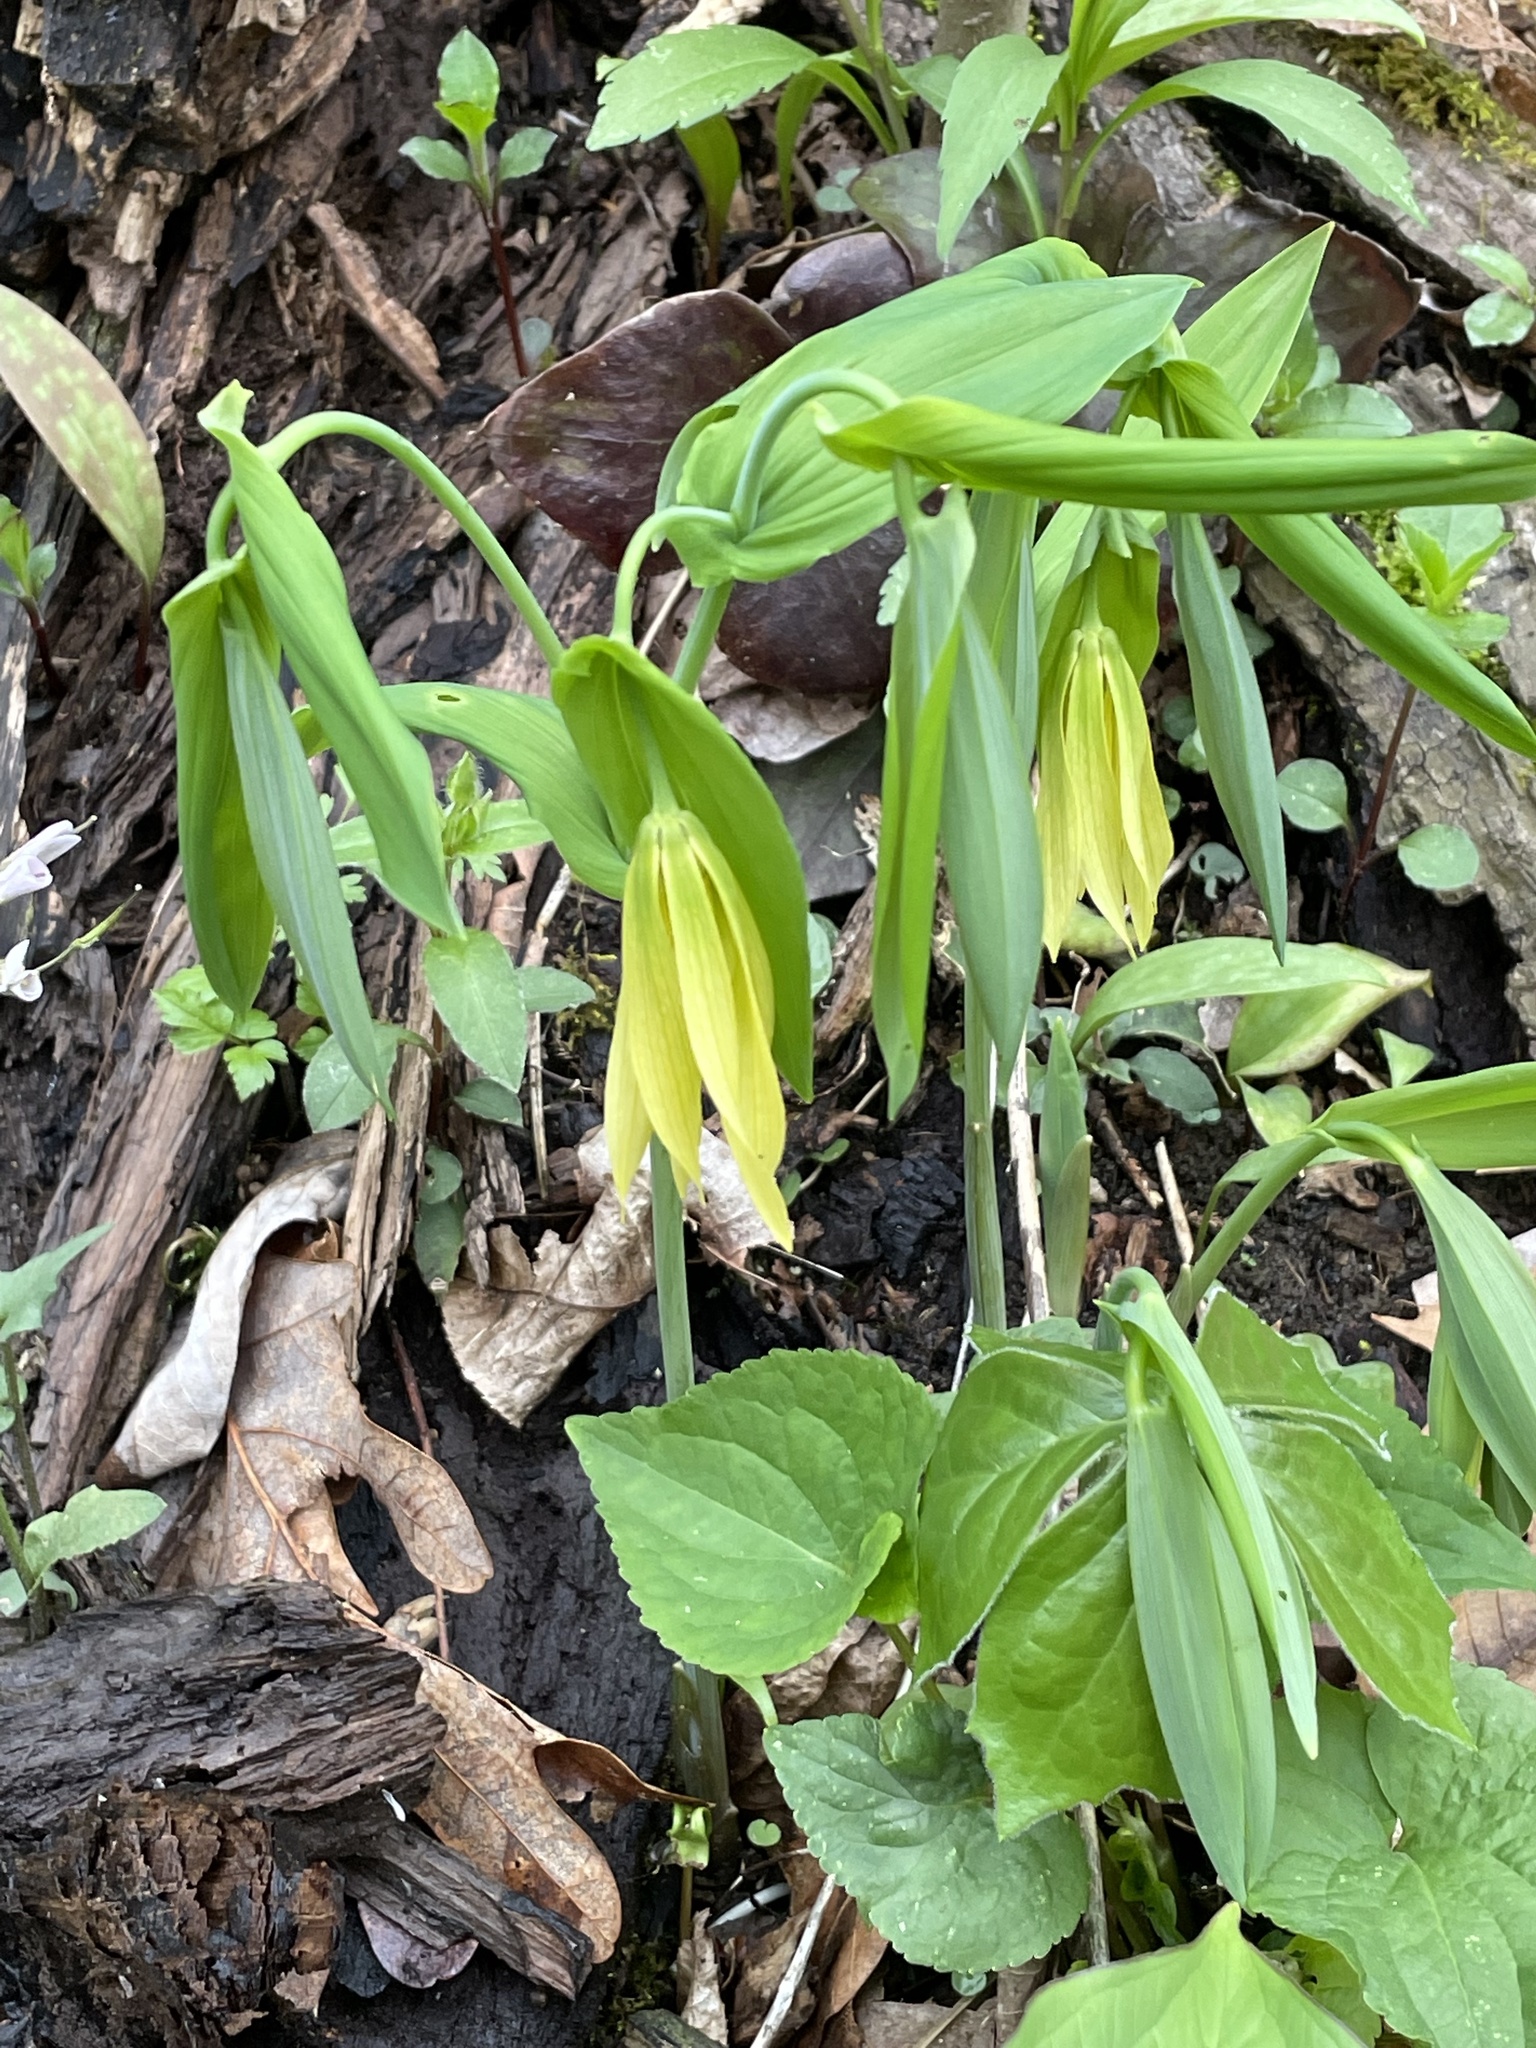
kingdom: Plantae
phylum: Tracheophyta
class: Liliopsida
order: Liliales
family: Colchicaceae
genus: Uvularia
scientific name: Uvularia grandiflora
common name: Bellwort
